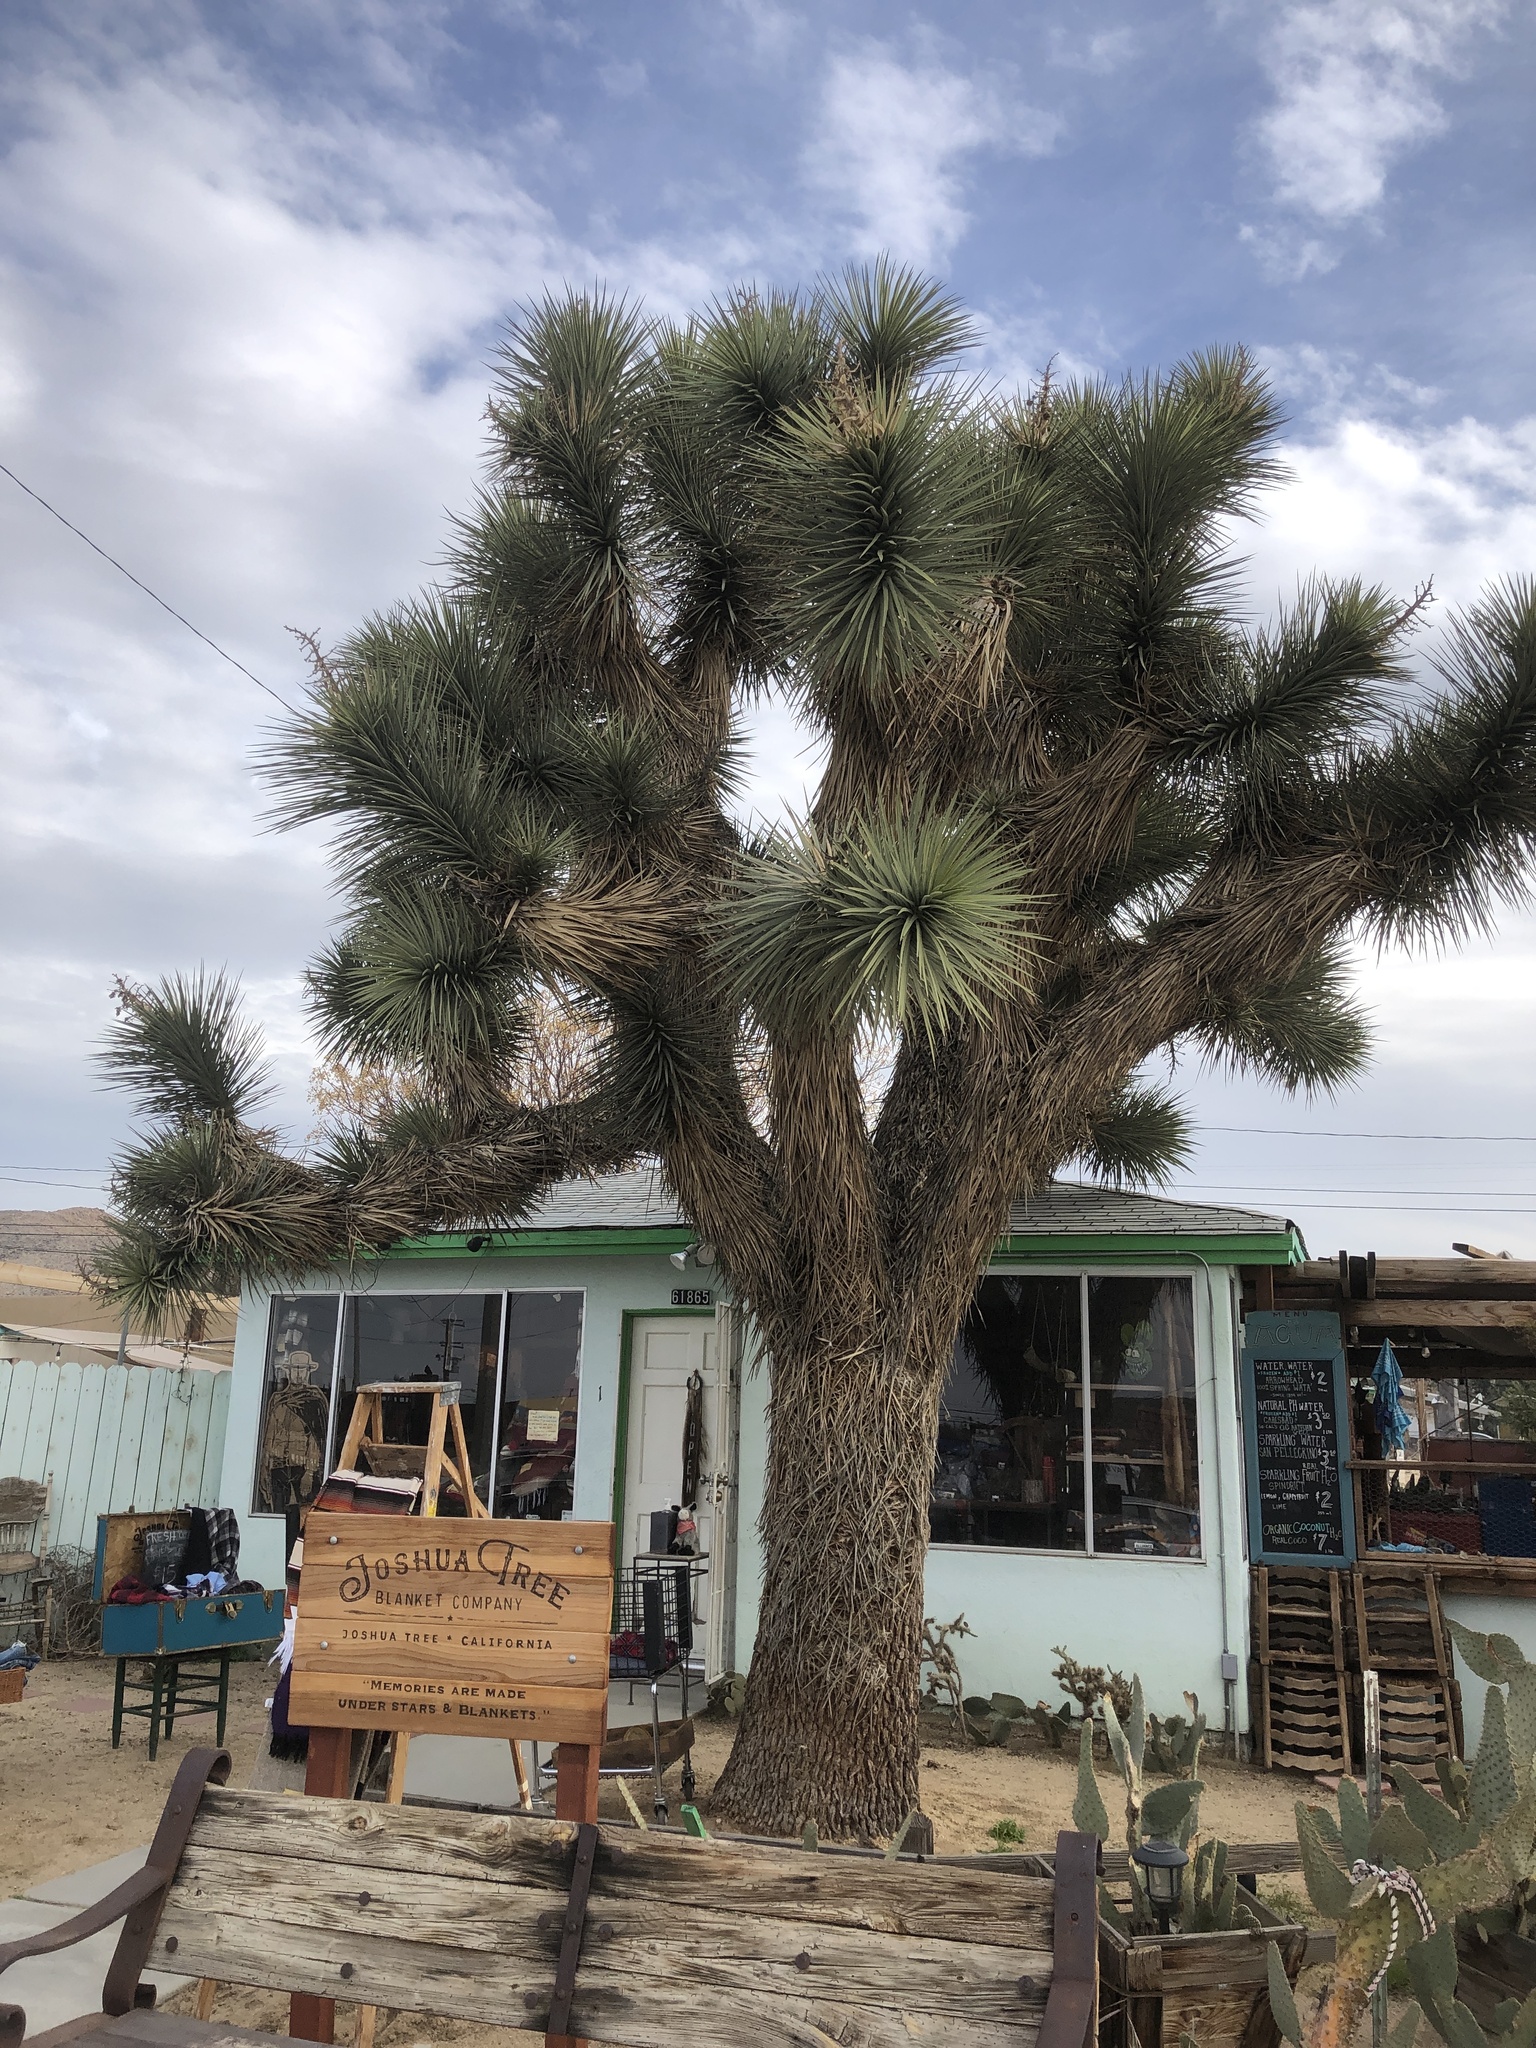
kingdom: Plantae
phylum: Tracheophyta
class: Liliopsida
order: Asparagales
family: Asparagaceae
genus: Yucca
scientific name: Yucca brevifolia
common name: Joshua tree
